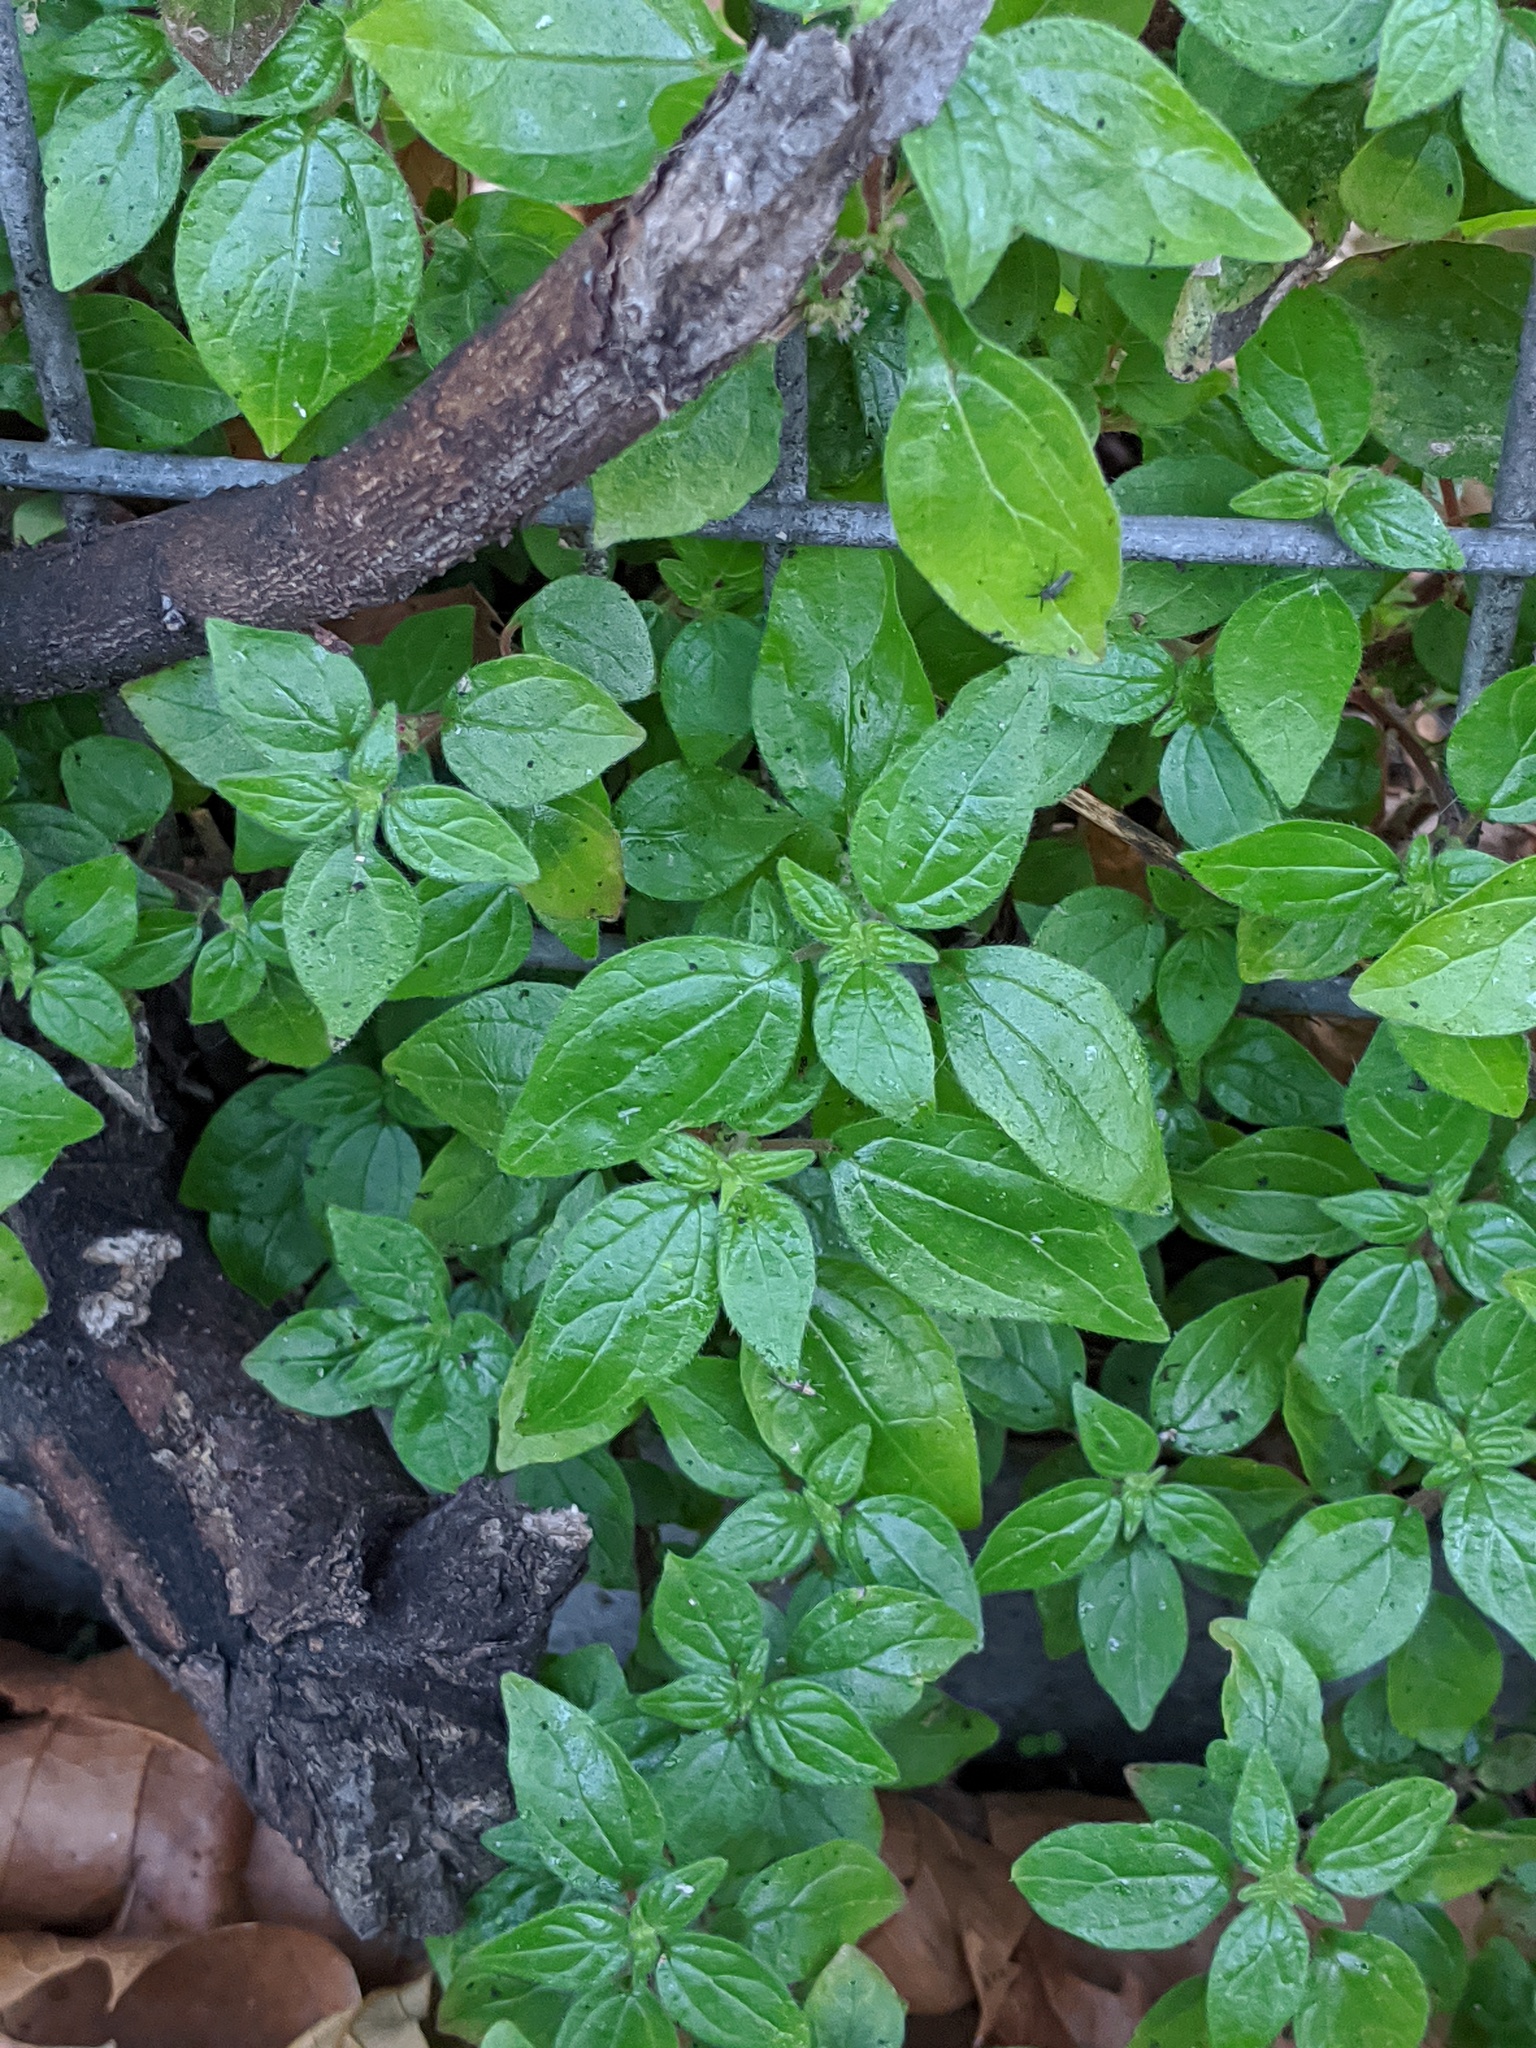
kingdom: Plantae
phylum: Tracheophyta
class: Magnoliopsida
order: Rosales
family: Urticaceae
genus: Parietaria
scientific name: Parietaria judaica
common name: Pellitory-of-the-wall
